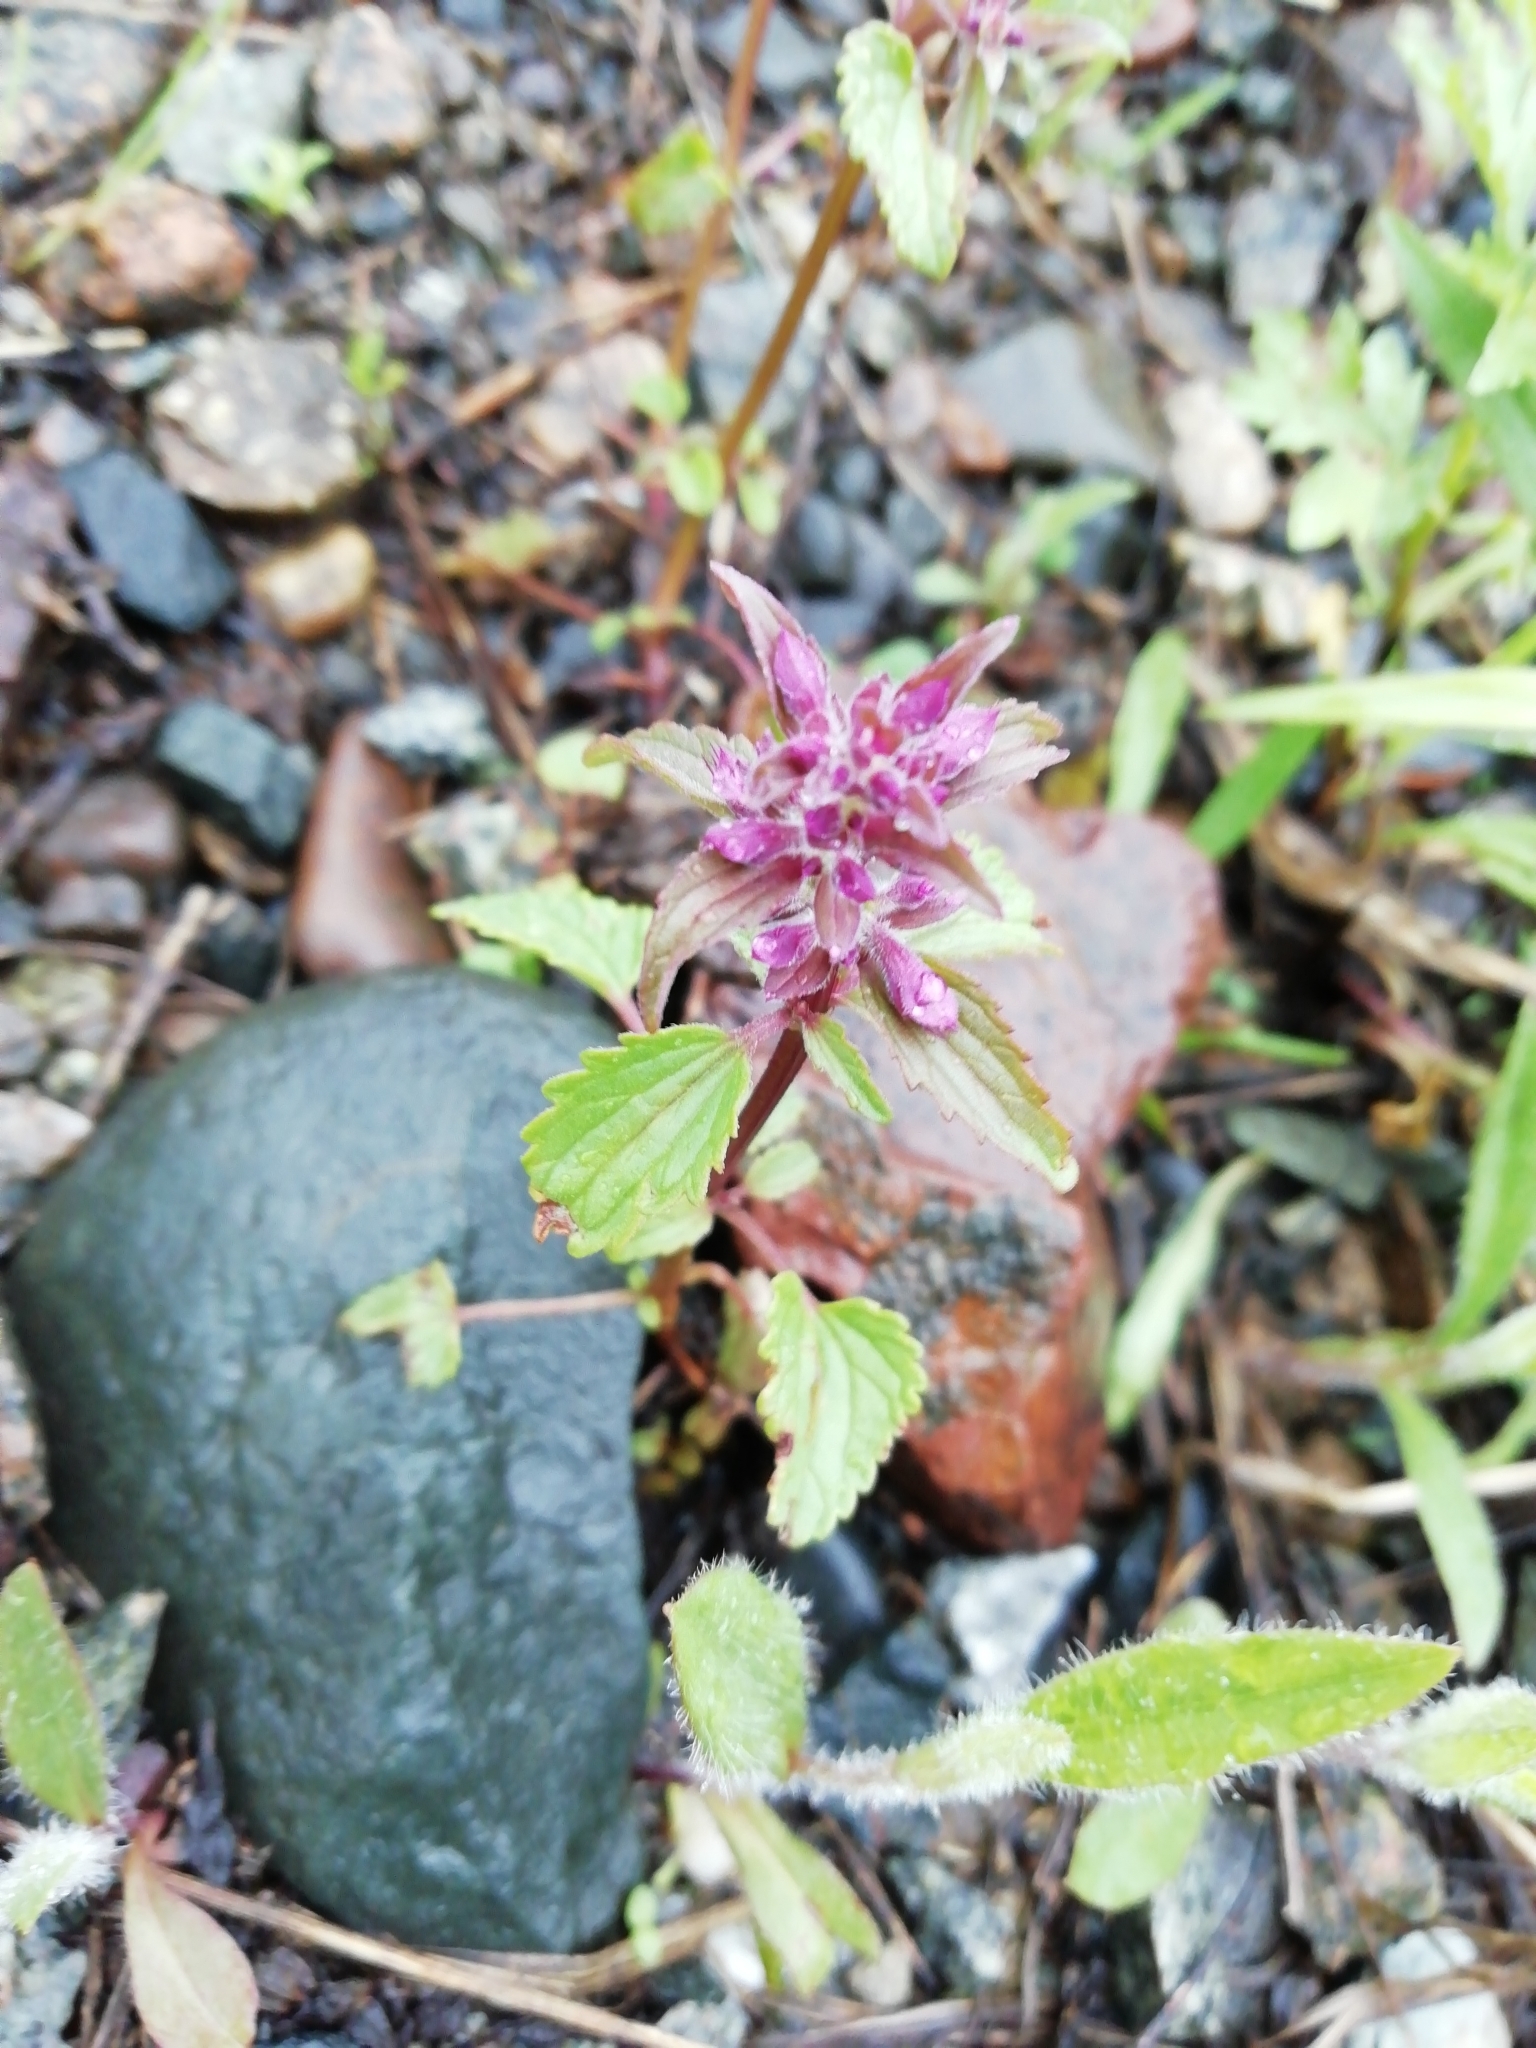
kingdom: Plantae
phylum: Tracheophyta
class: Magnoliopsida
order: Lamiales
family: Lamiaceae
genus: Dracocephalum
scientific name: Dracocephalum nutans
